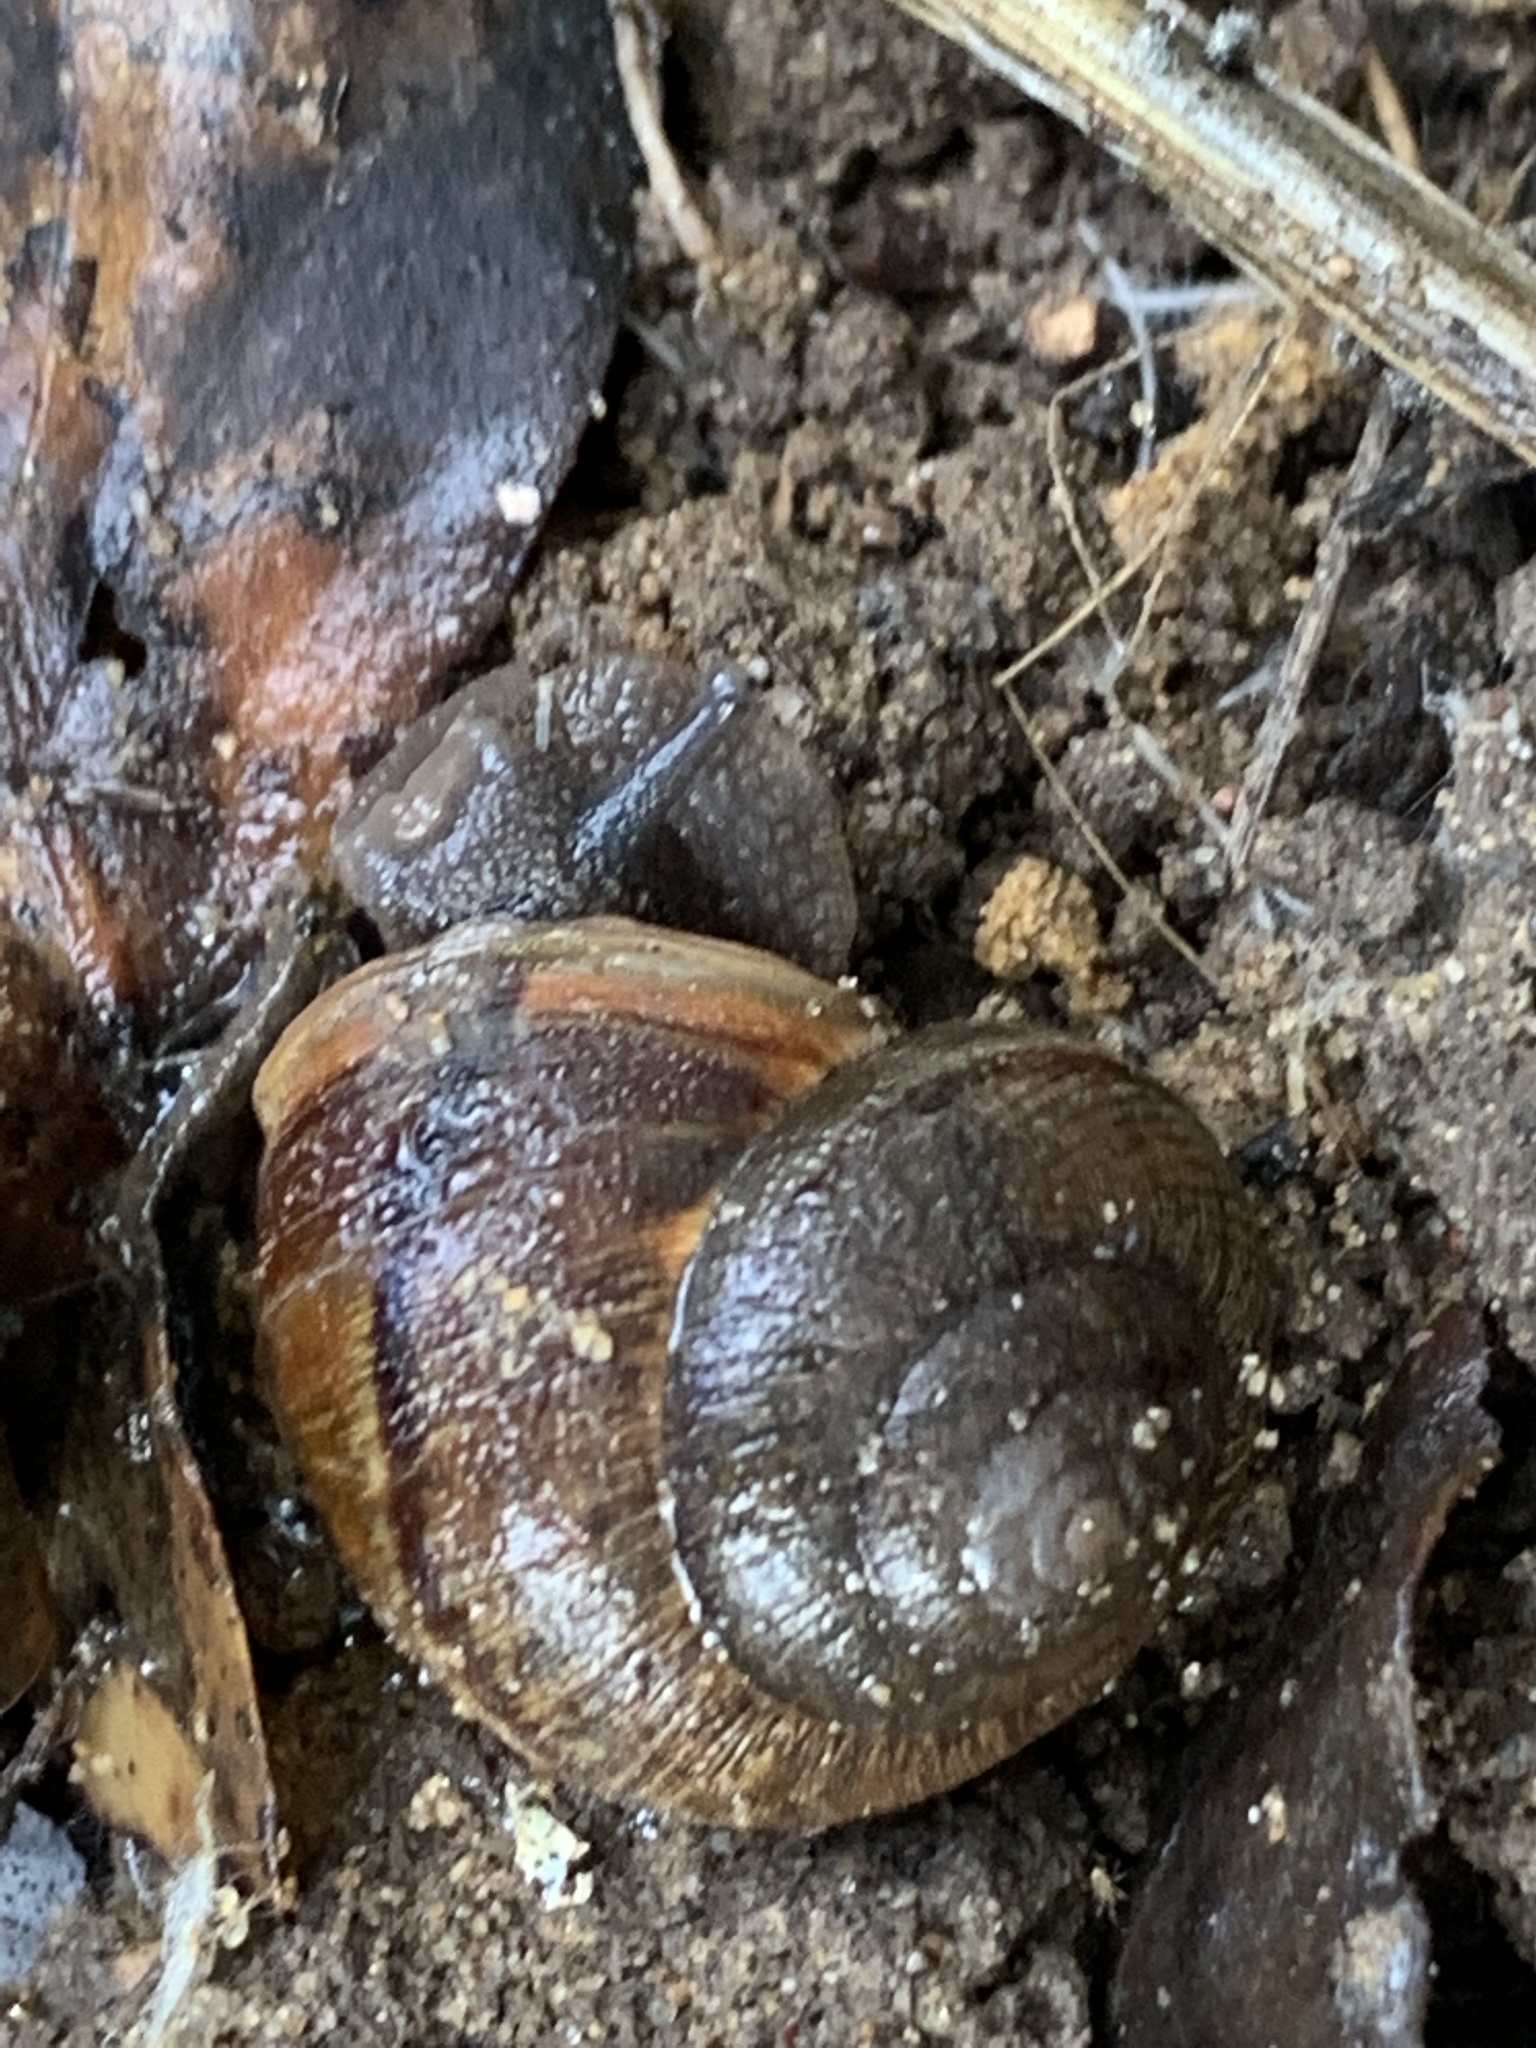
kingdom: Animalia
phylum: Mollusca
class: Gastropoda
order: Stylommatophora
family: Xanthonychidae
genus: Helminthoglypta
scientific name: Helminthoglypta nickliniana
